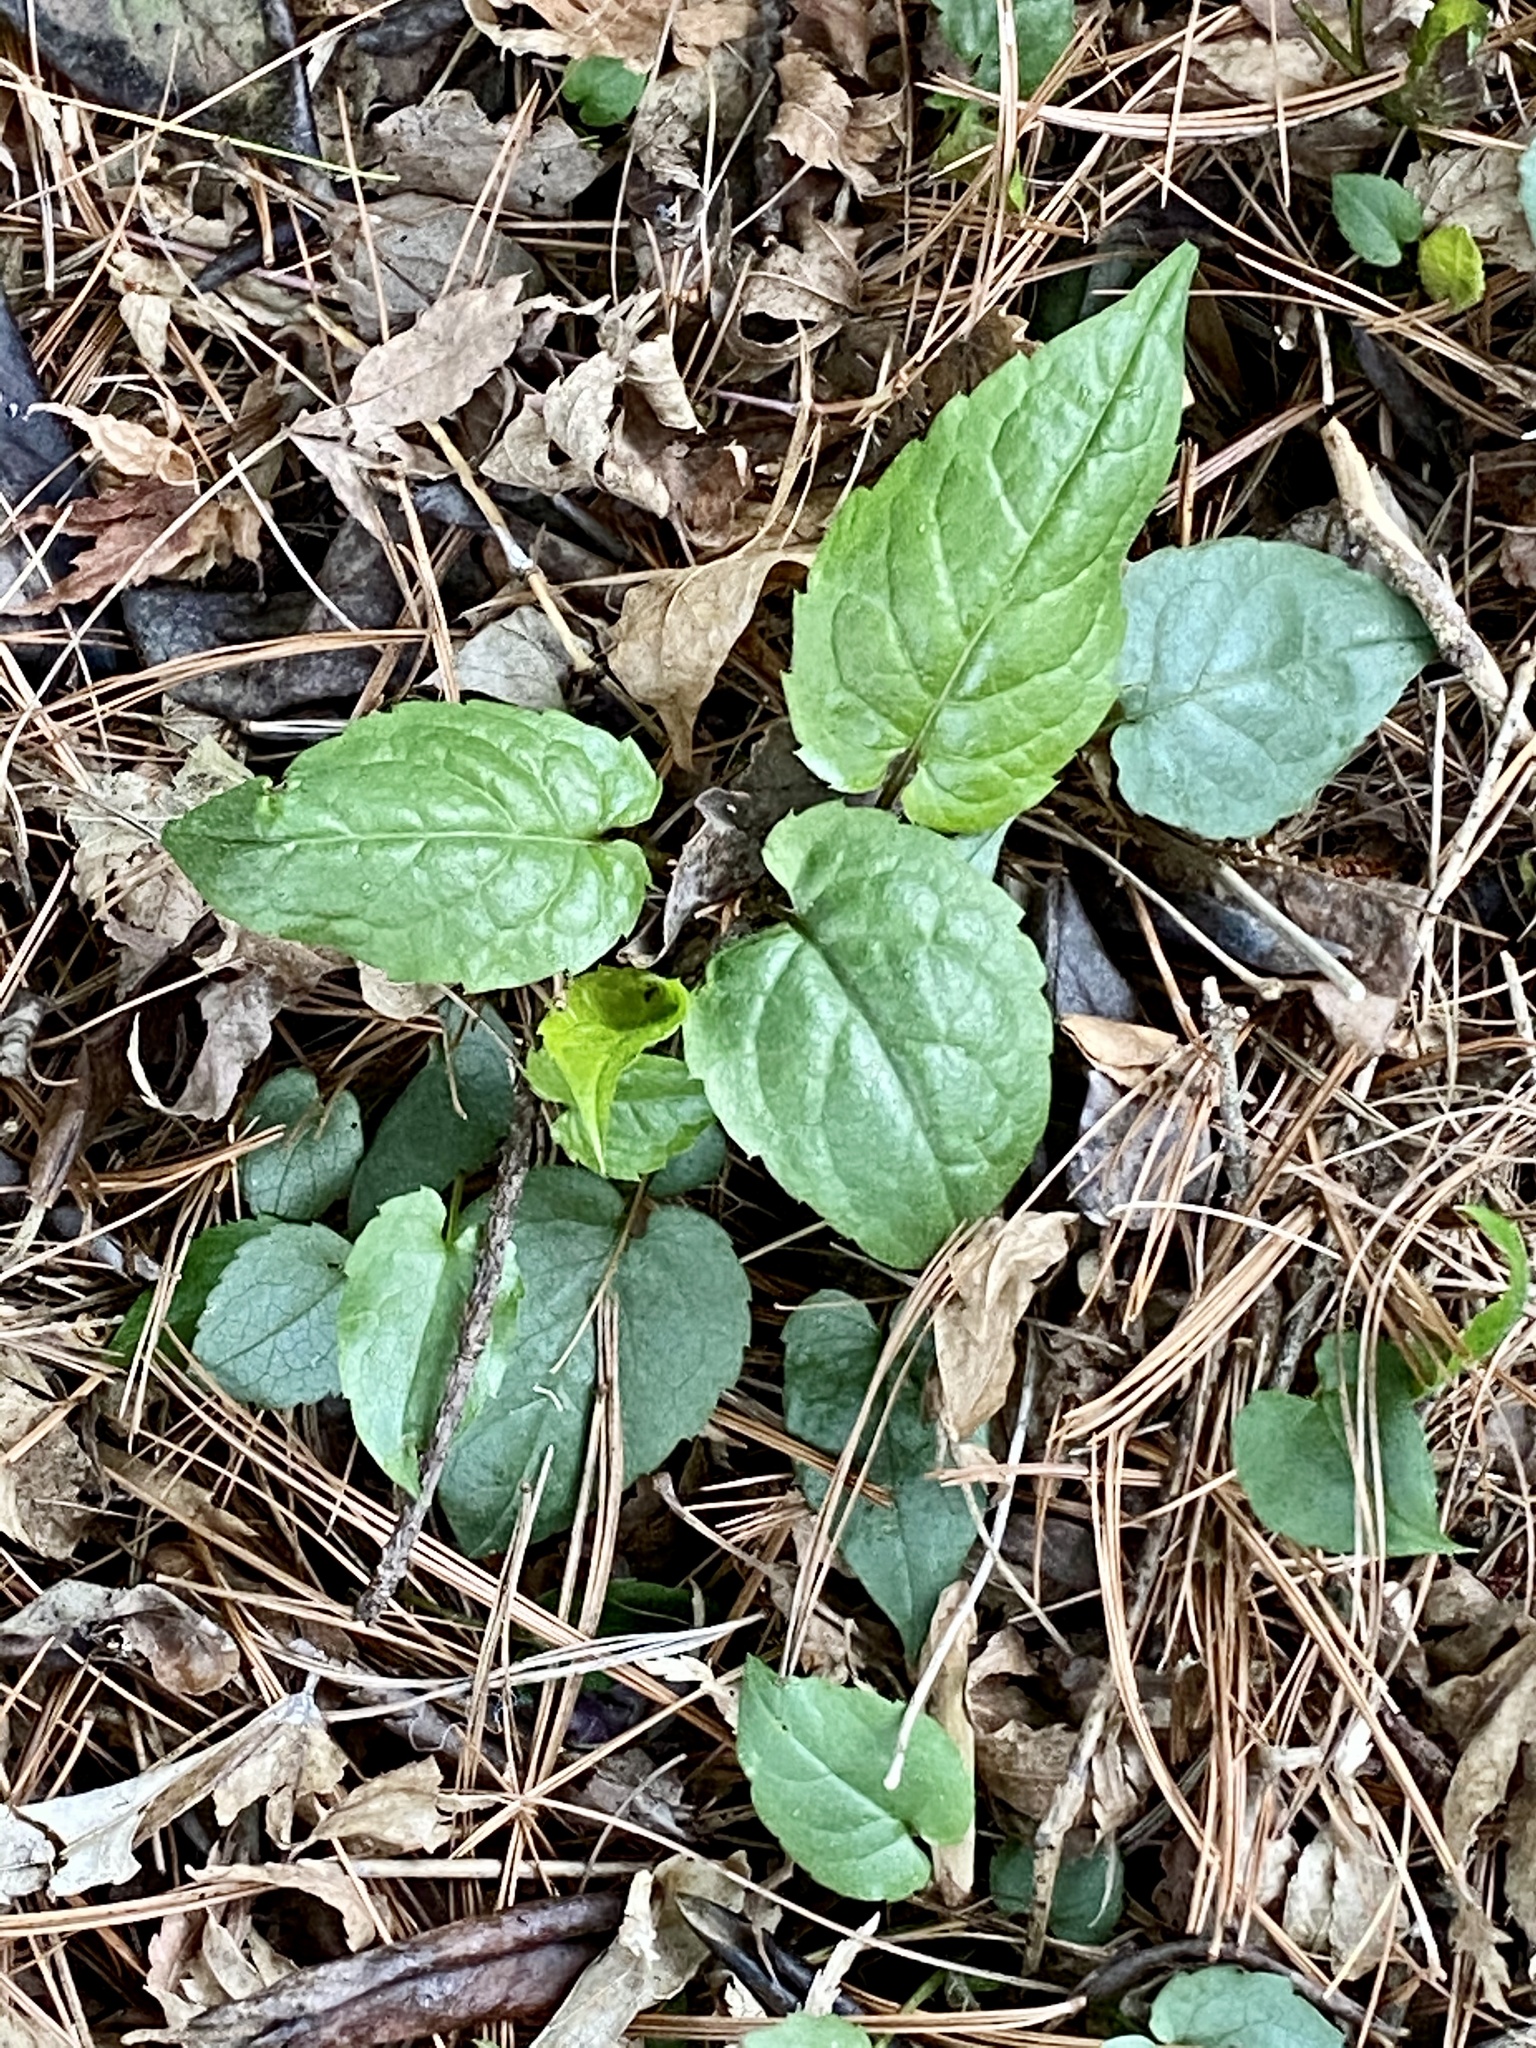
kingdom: Plantae
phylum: Tracheophyta
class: Magnoliopsida
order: Asterales
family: Asteraceae
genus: Eurybia
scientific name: Eurybia divaricata
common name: White wood aster
